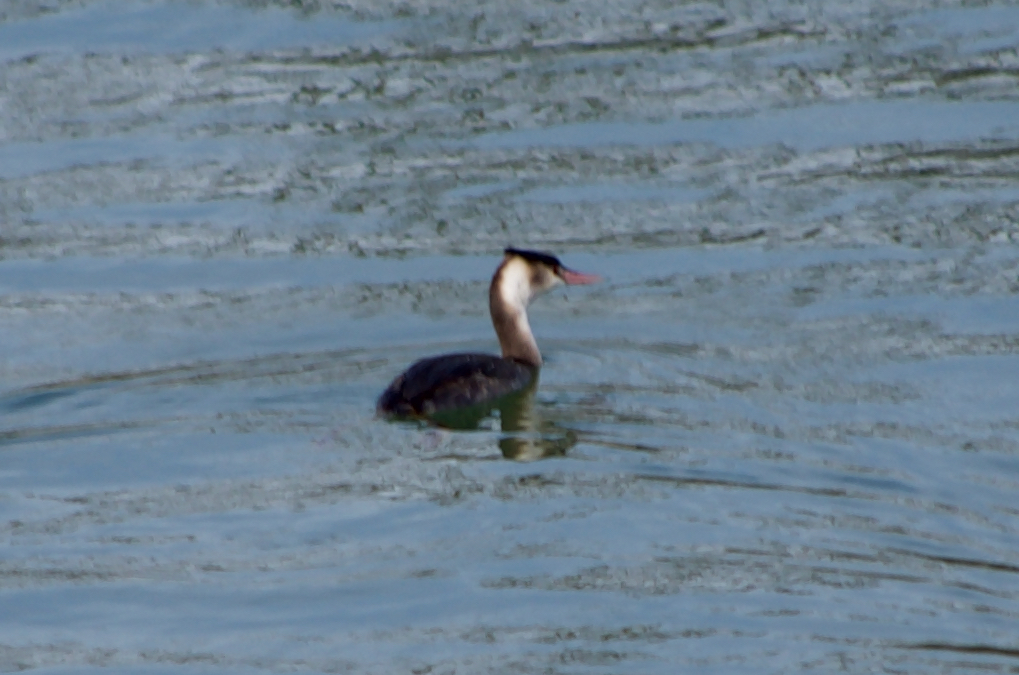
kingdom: Animalia
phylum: Chordata
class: Aves
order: Podicipediformes
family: Podicipedidae
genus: Podiceps
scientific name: Podiceps cristatus
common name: Great crested grebe
